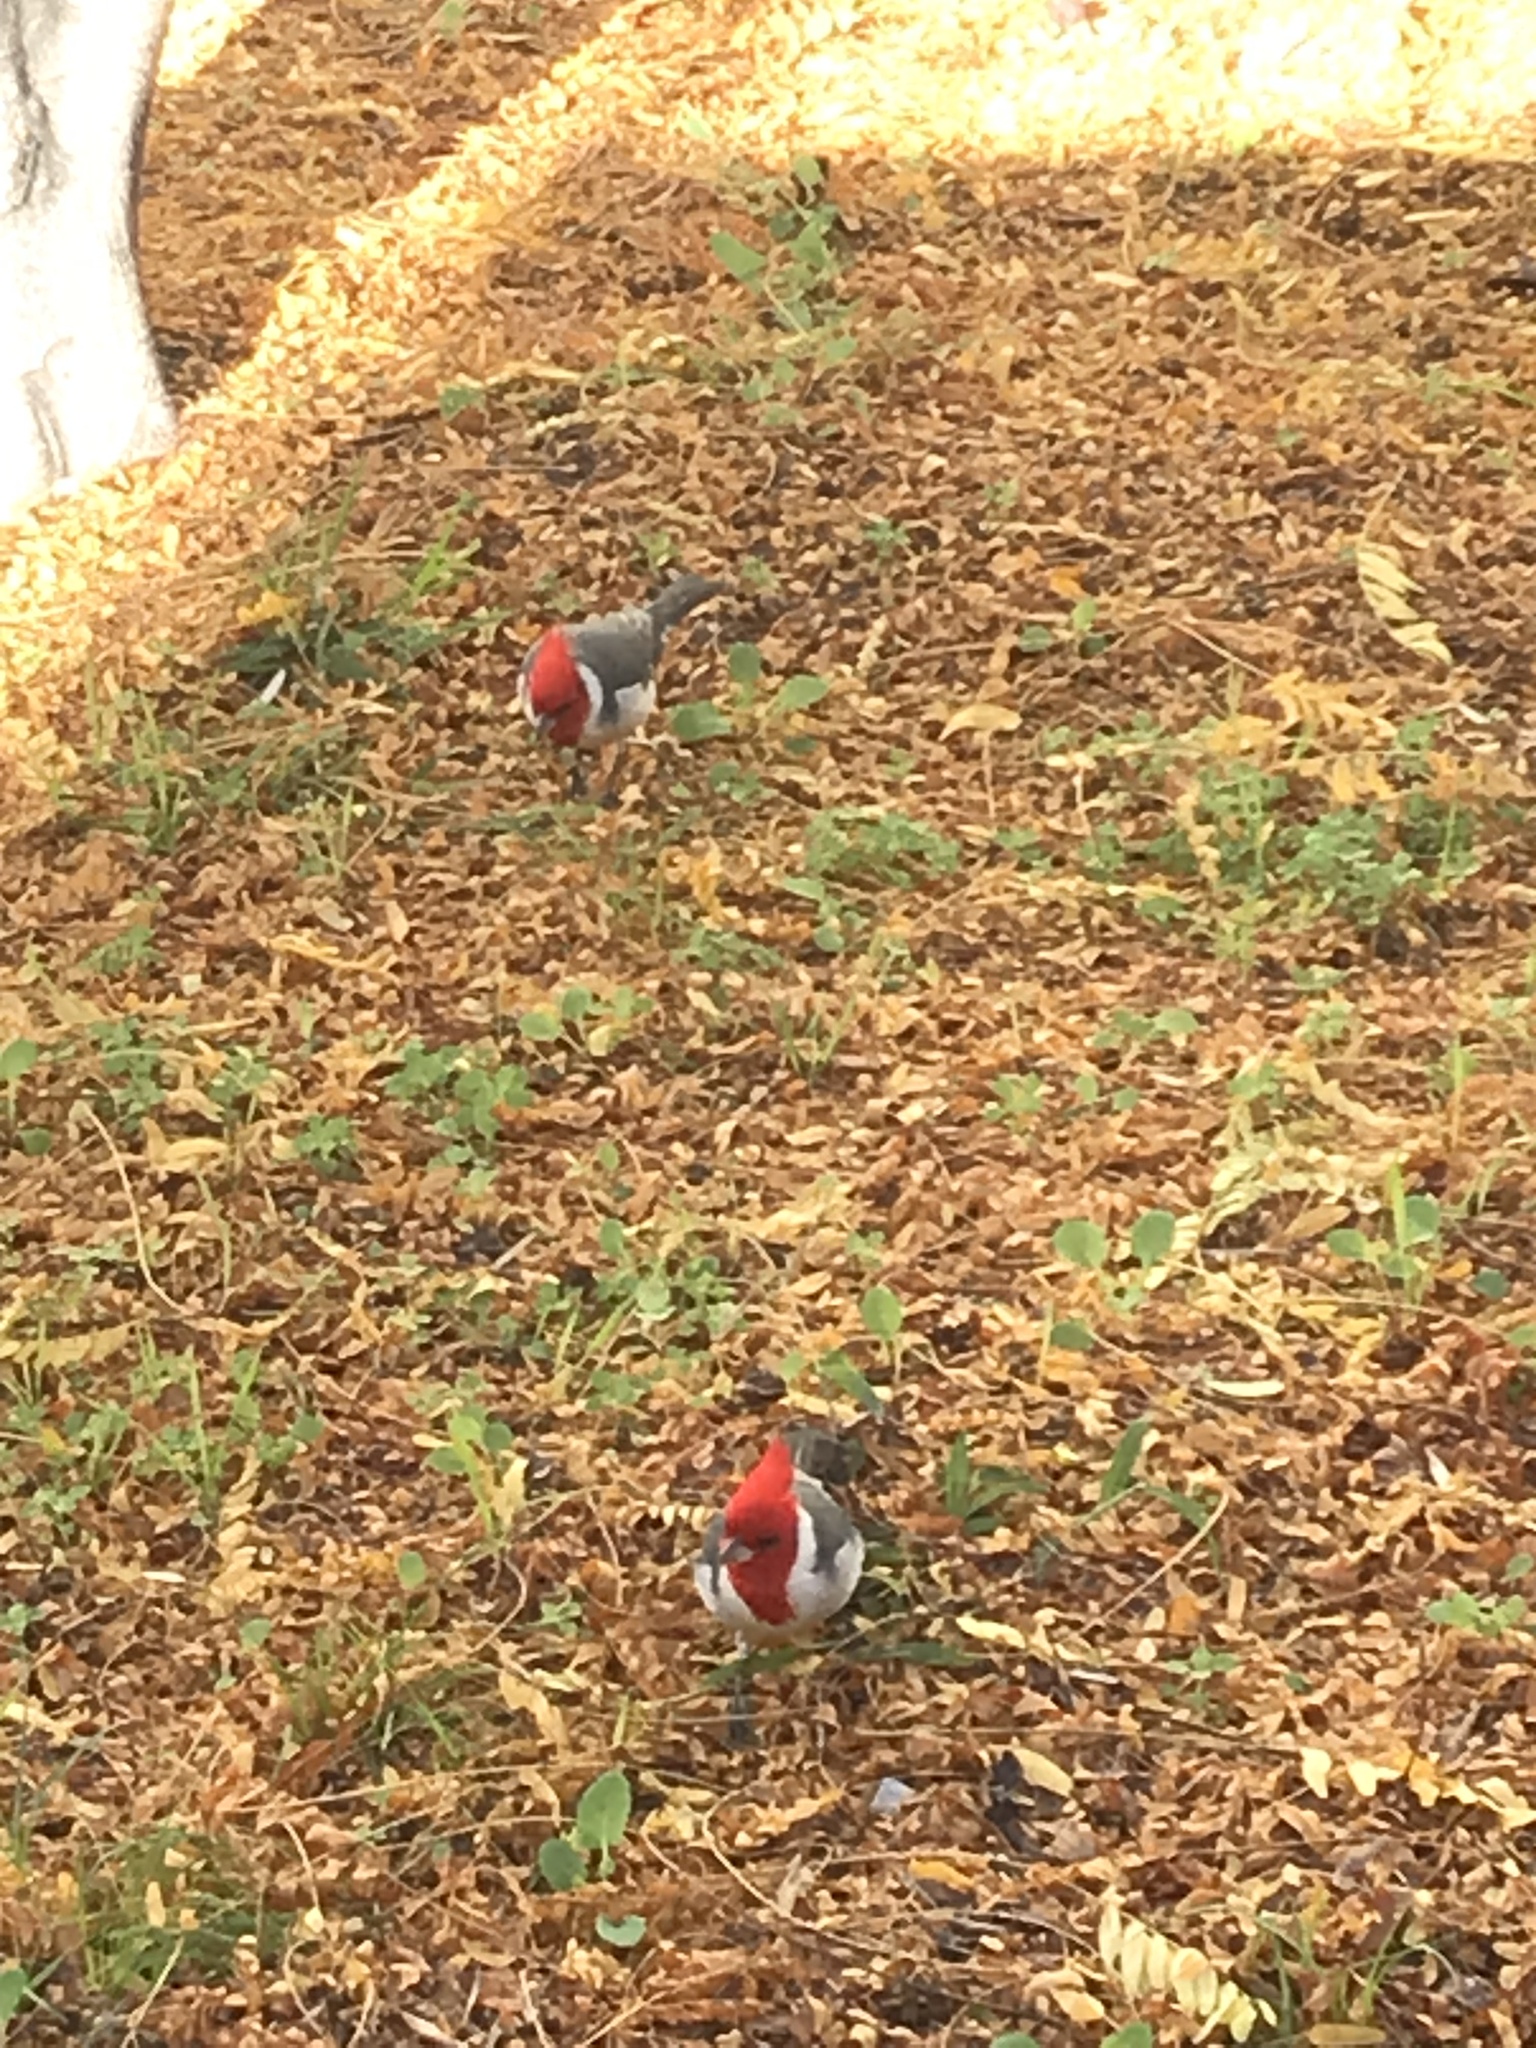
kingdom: Animalia
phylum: Chordata
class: Aves
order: Passeriformes
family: Thraupidae
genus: Paroaria
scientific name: Paroaria coronata
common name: Red-crested cardinal
